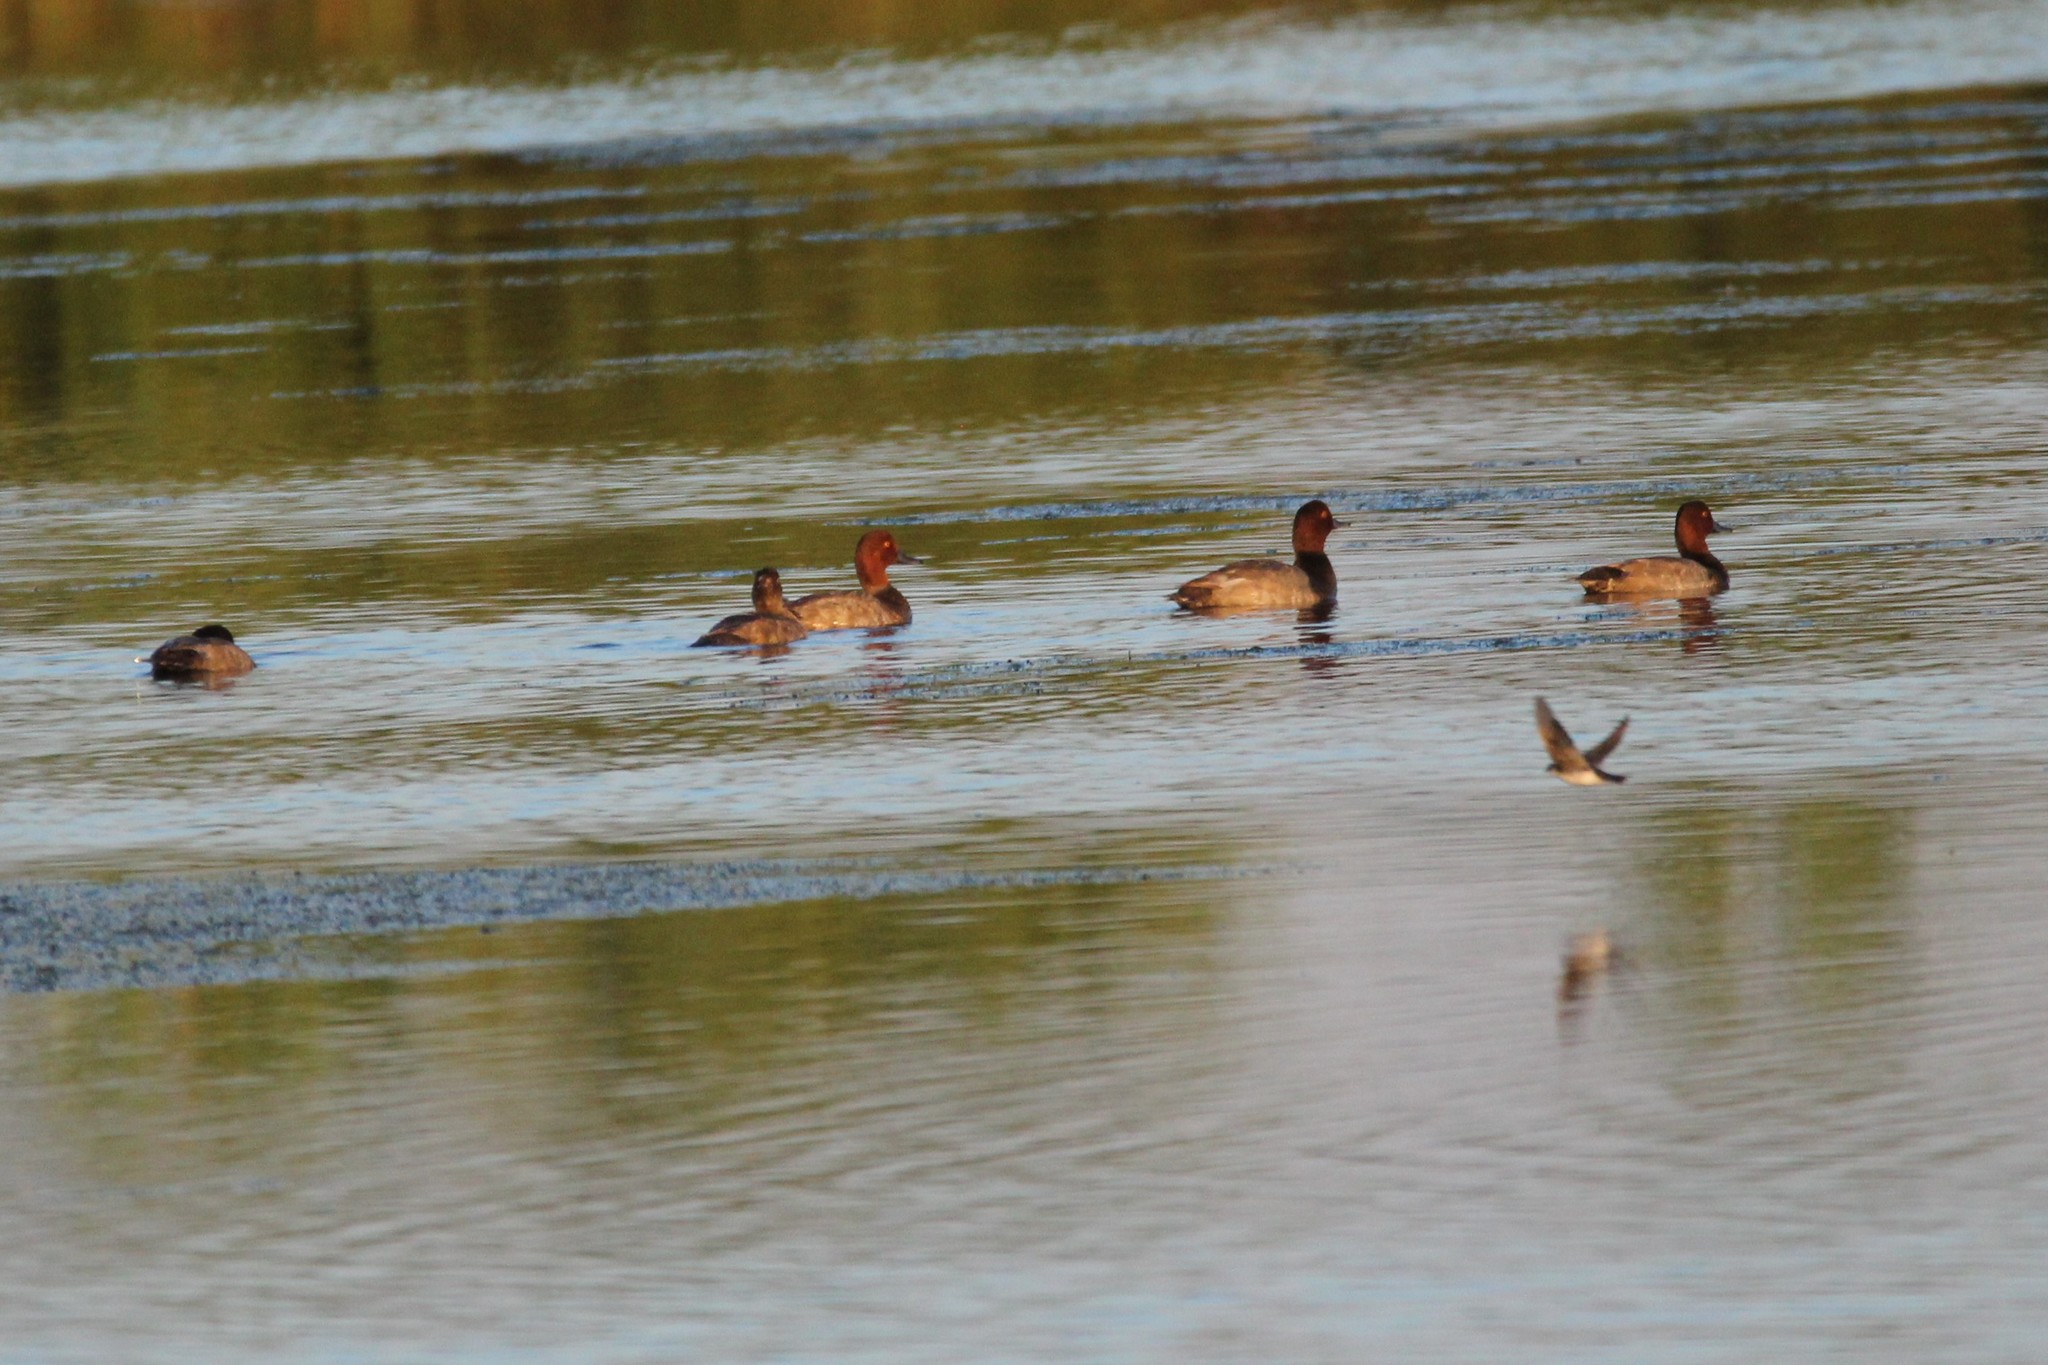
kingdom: Animalia
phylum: Chordata
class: Aves
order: Anseriformes
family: Anatidae
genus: Aythya
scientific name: Aythya americana
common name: Redhead
